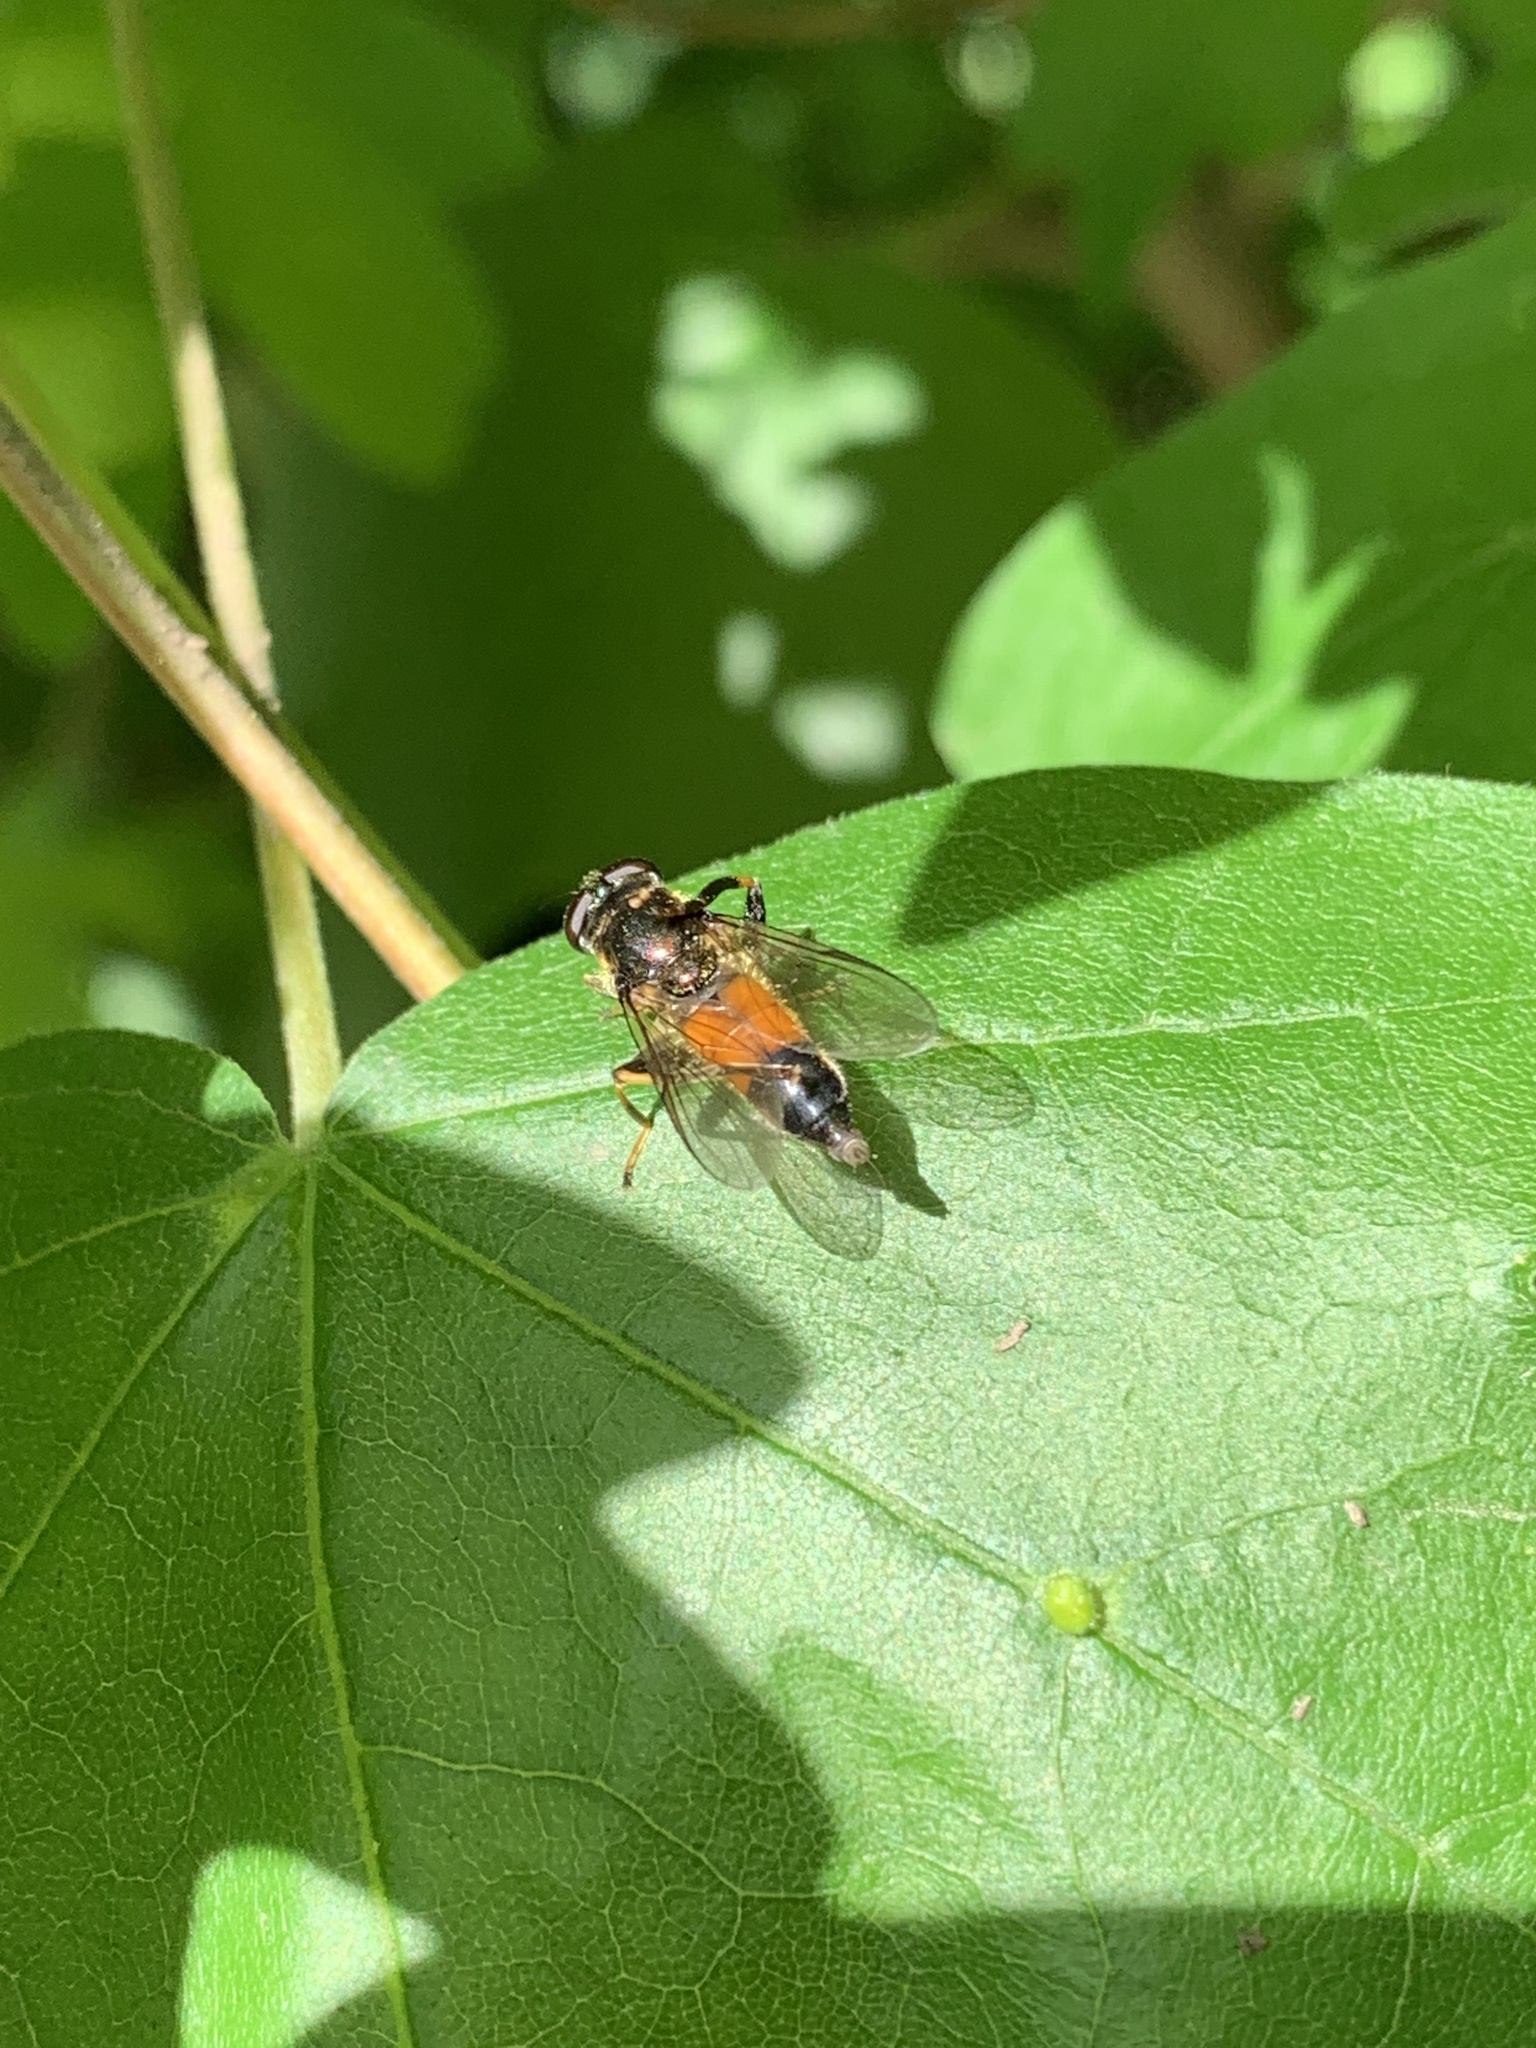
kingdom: Animalia
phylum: Arthropoda
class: Insecta
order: Diptera
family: Syrphidae
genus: Xylota
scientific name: Xylota segnis
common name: Brown-toed forest fly
